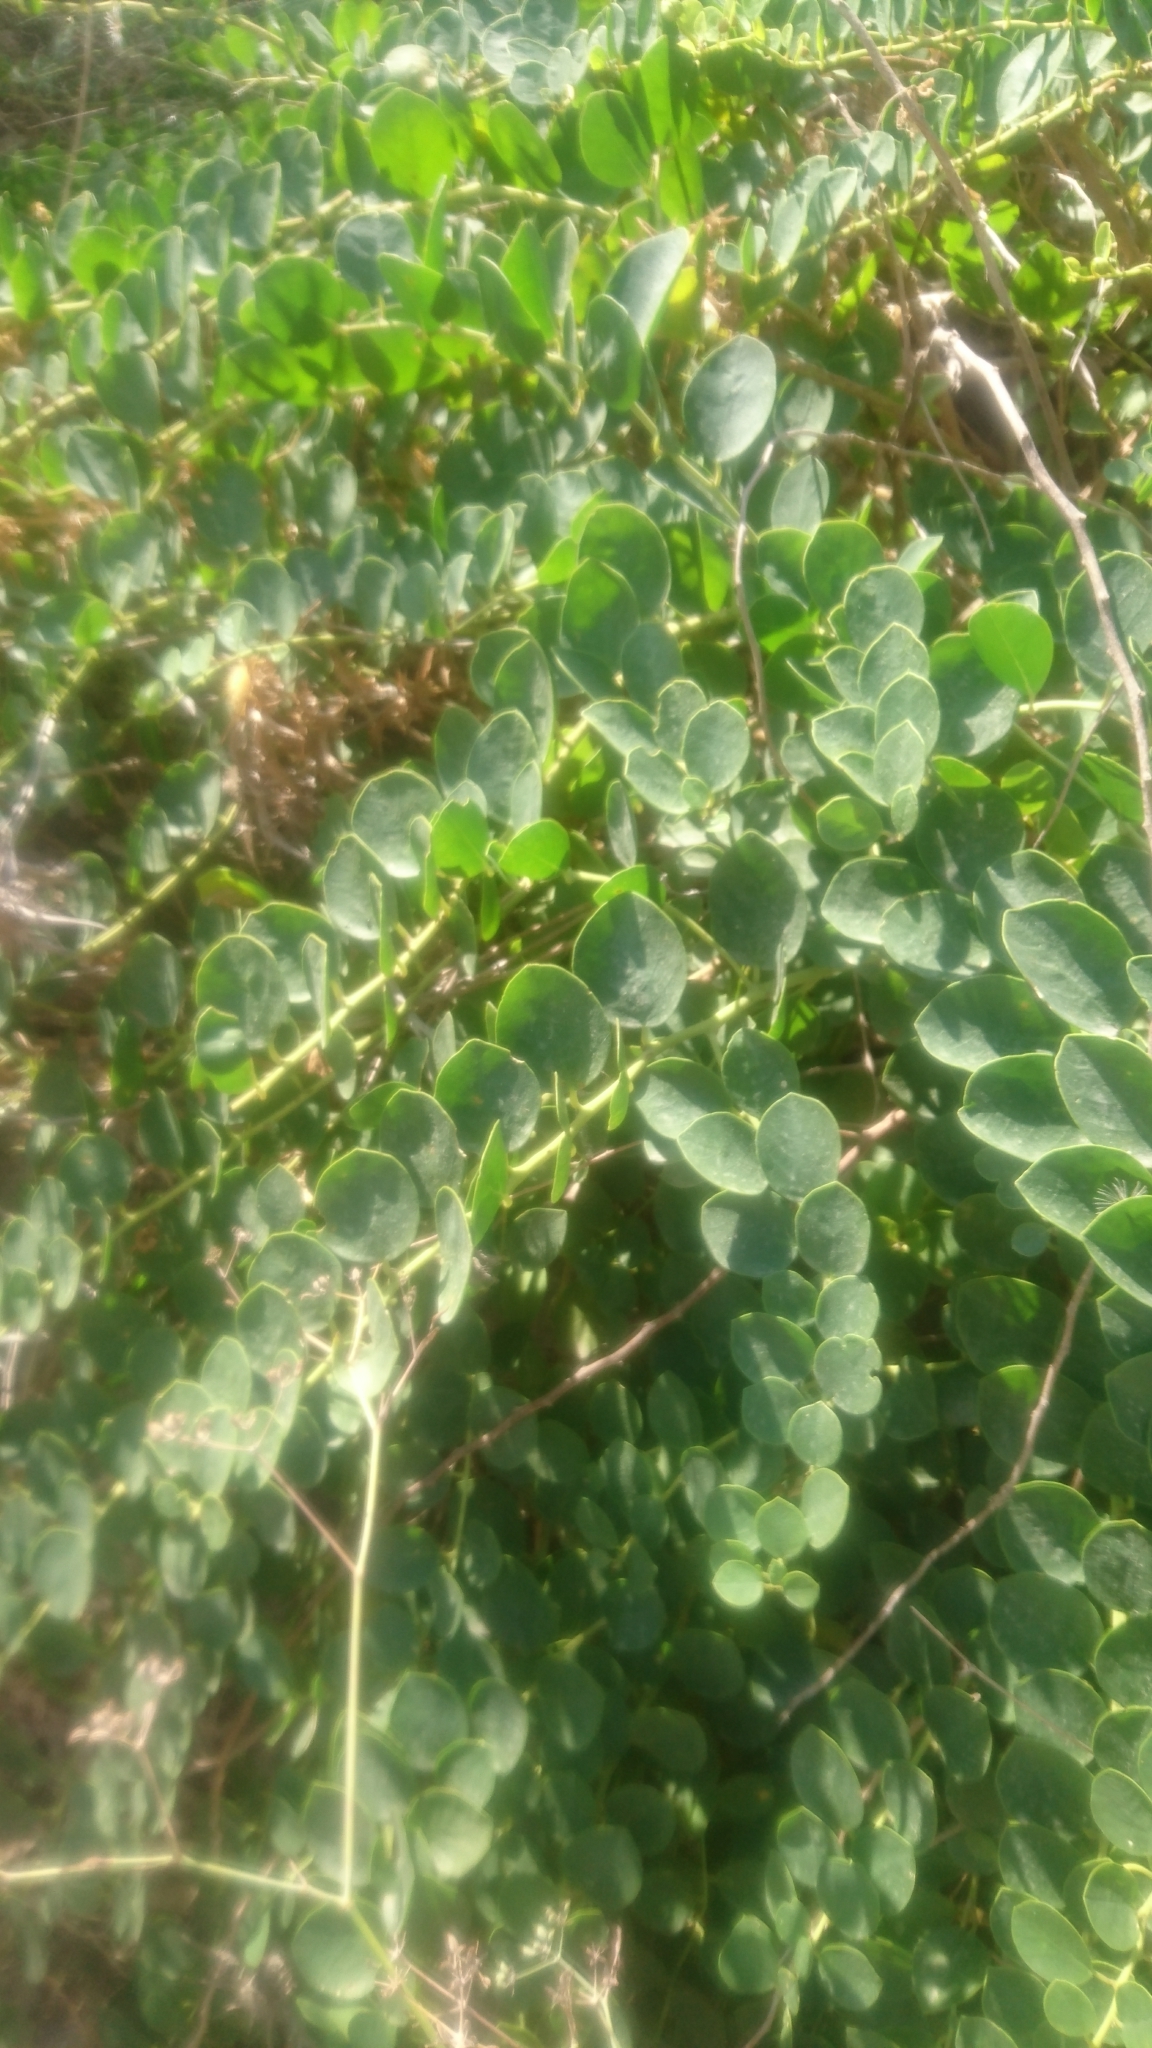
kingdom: Plantae
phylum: Tracheophyta
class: Magnoliopsida
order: Brassicales
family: Capparaceae
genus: Capparis
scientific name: Capparis orientalis
